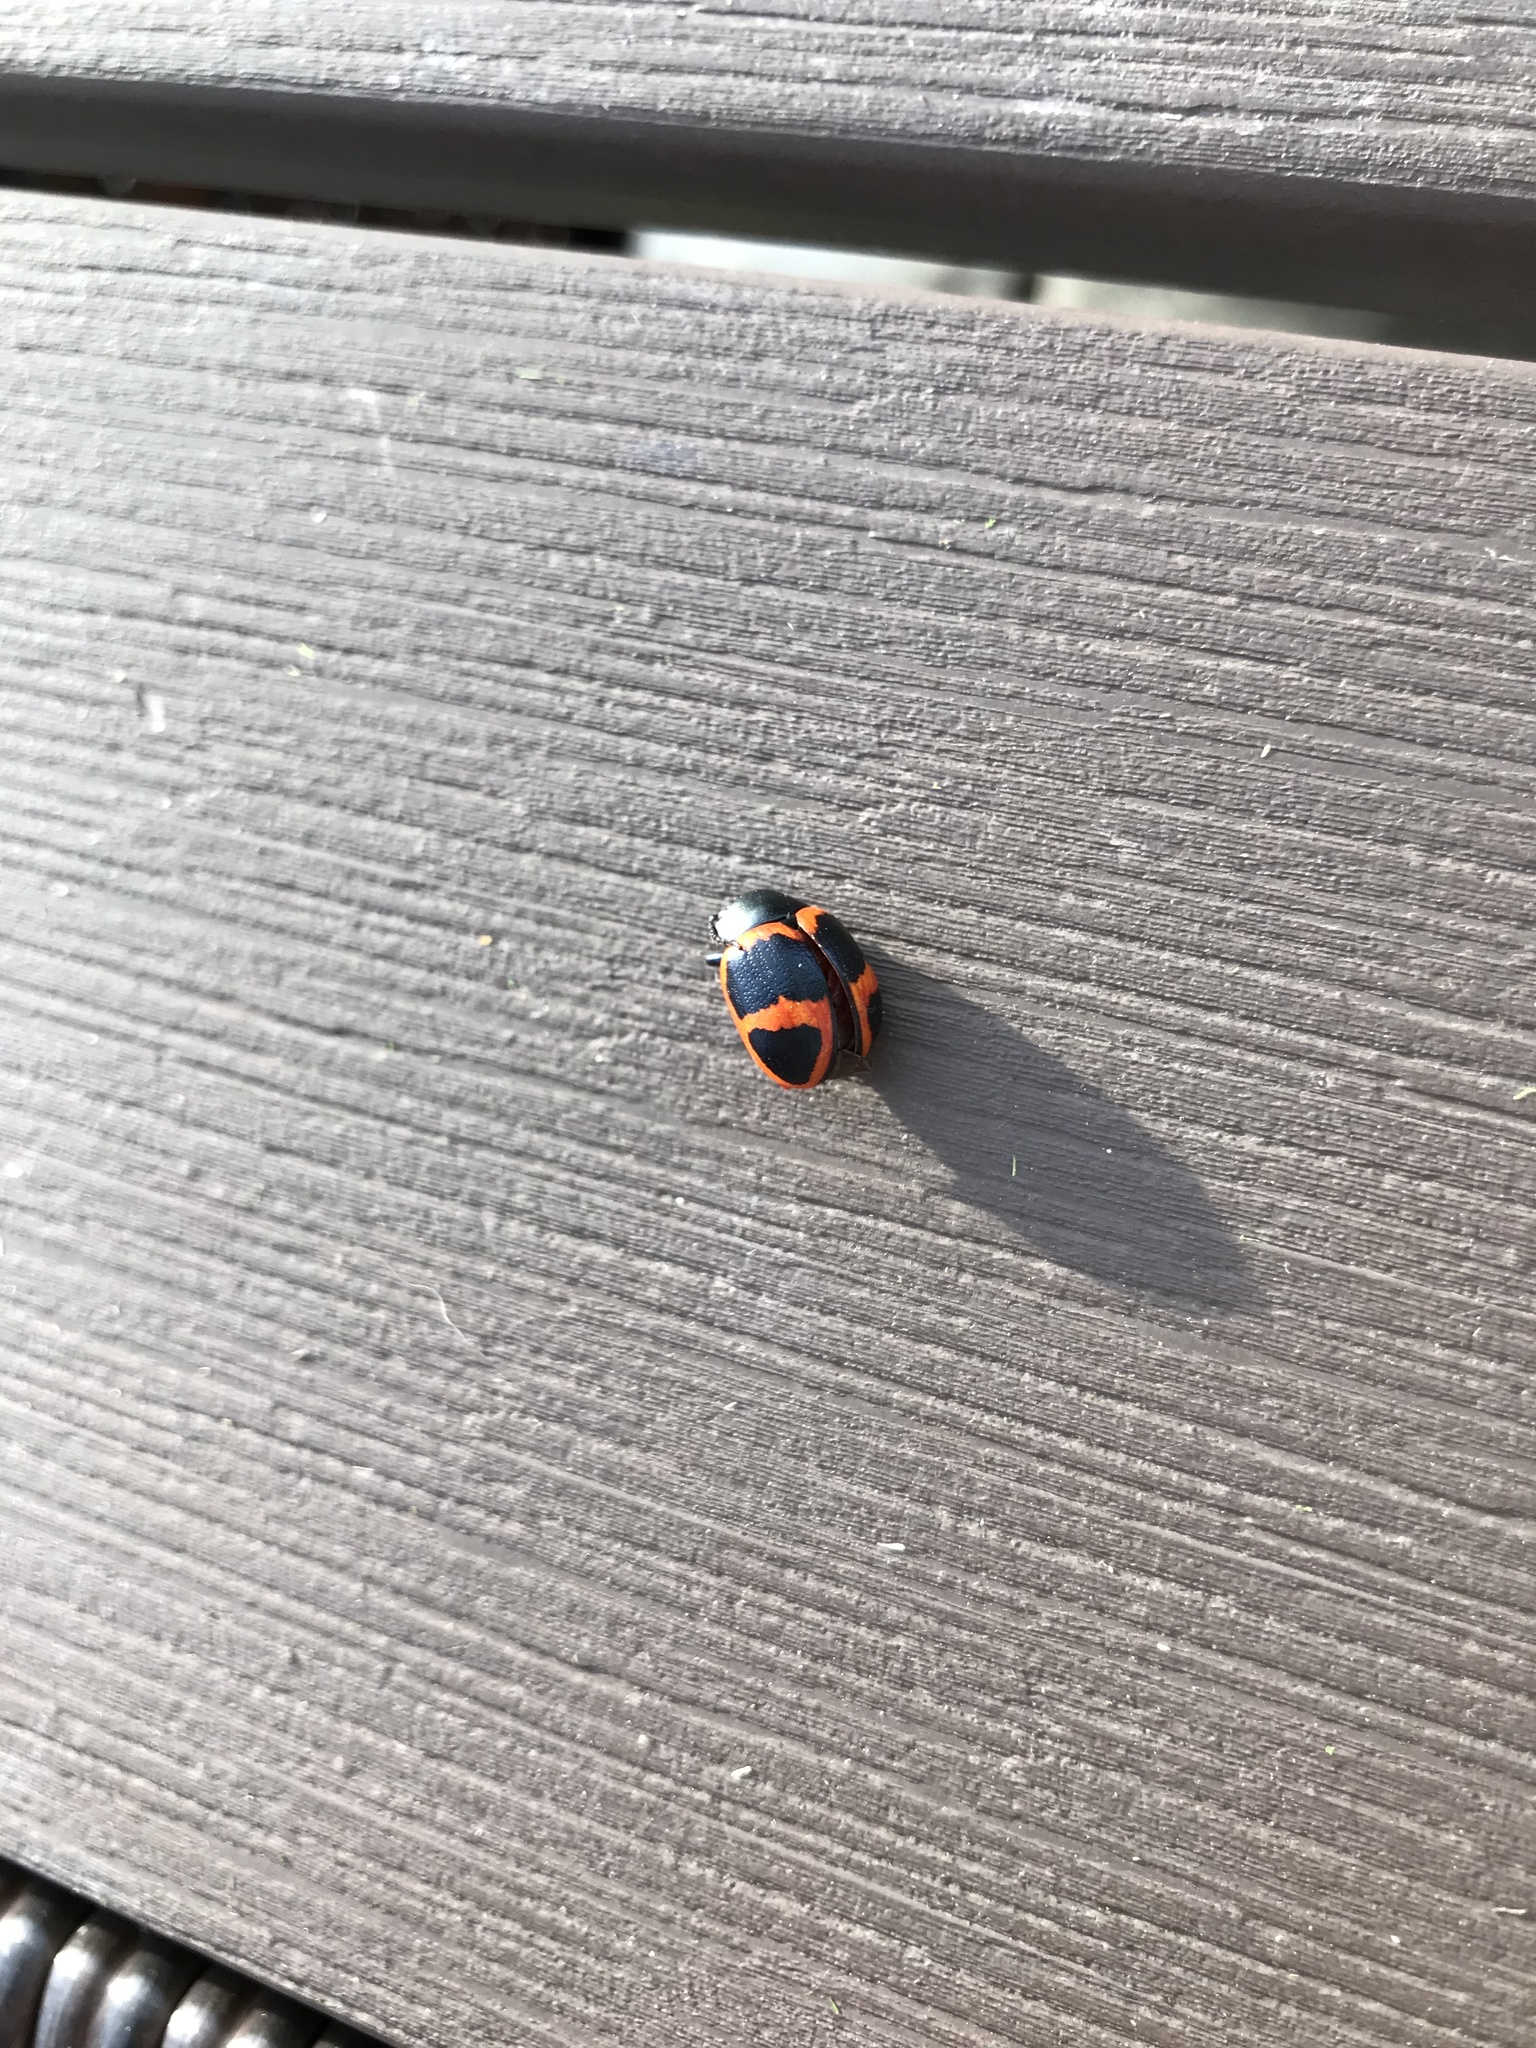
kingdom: Animalia
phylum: Arthropoda
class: Insecta
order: Coleoptera
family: Chrysomelidae
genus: Labidomera
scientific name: Labidomera clivicollis
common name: Swamp milkweed leaf beetle
